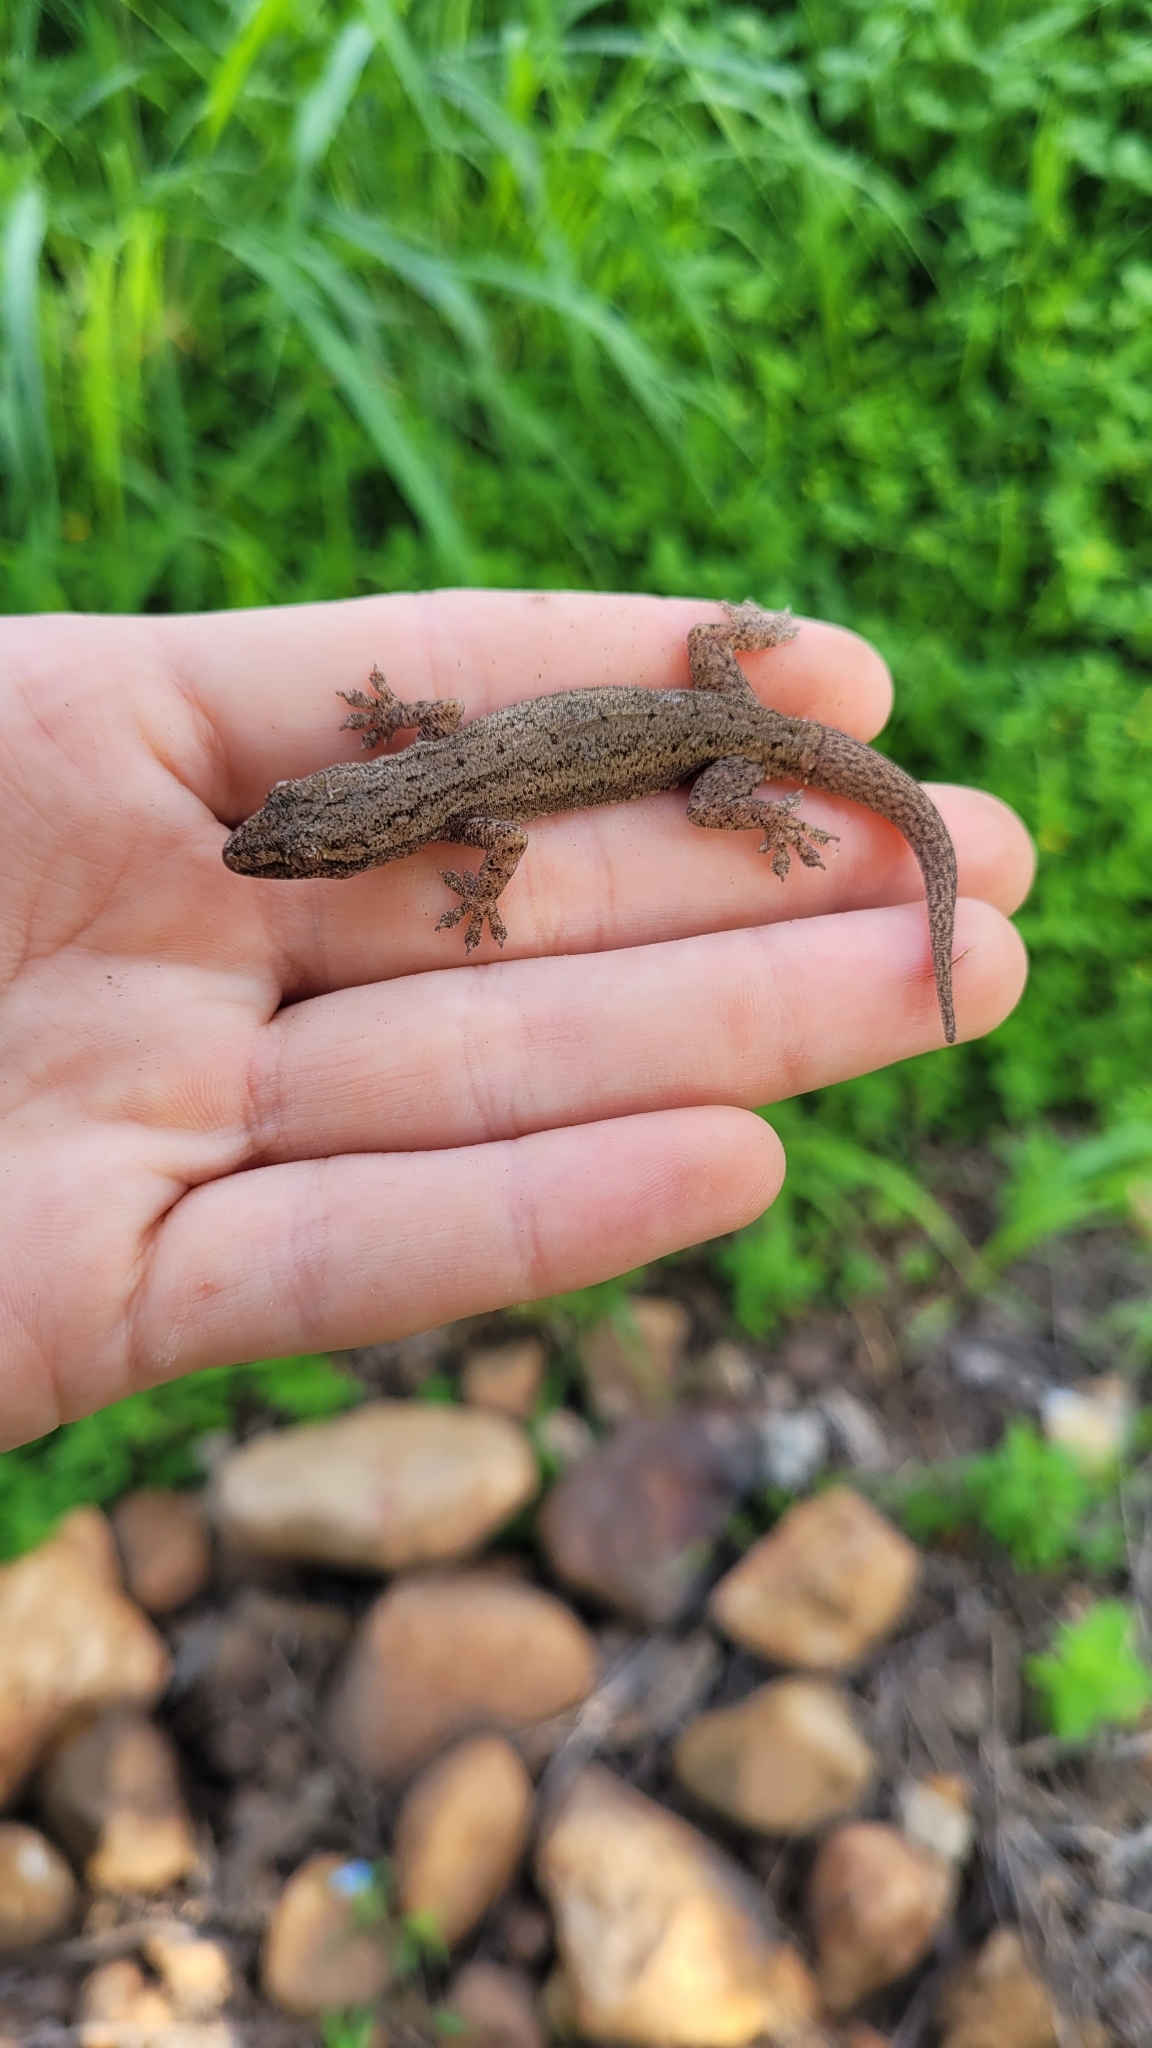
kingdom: Animalia
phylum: Chordata
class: Squamata
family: Gekkonidae
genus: Hemidactylus
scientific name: Hemidactylus frenatus
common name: Common house gecko
